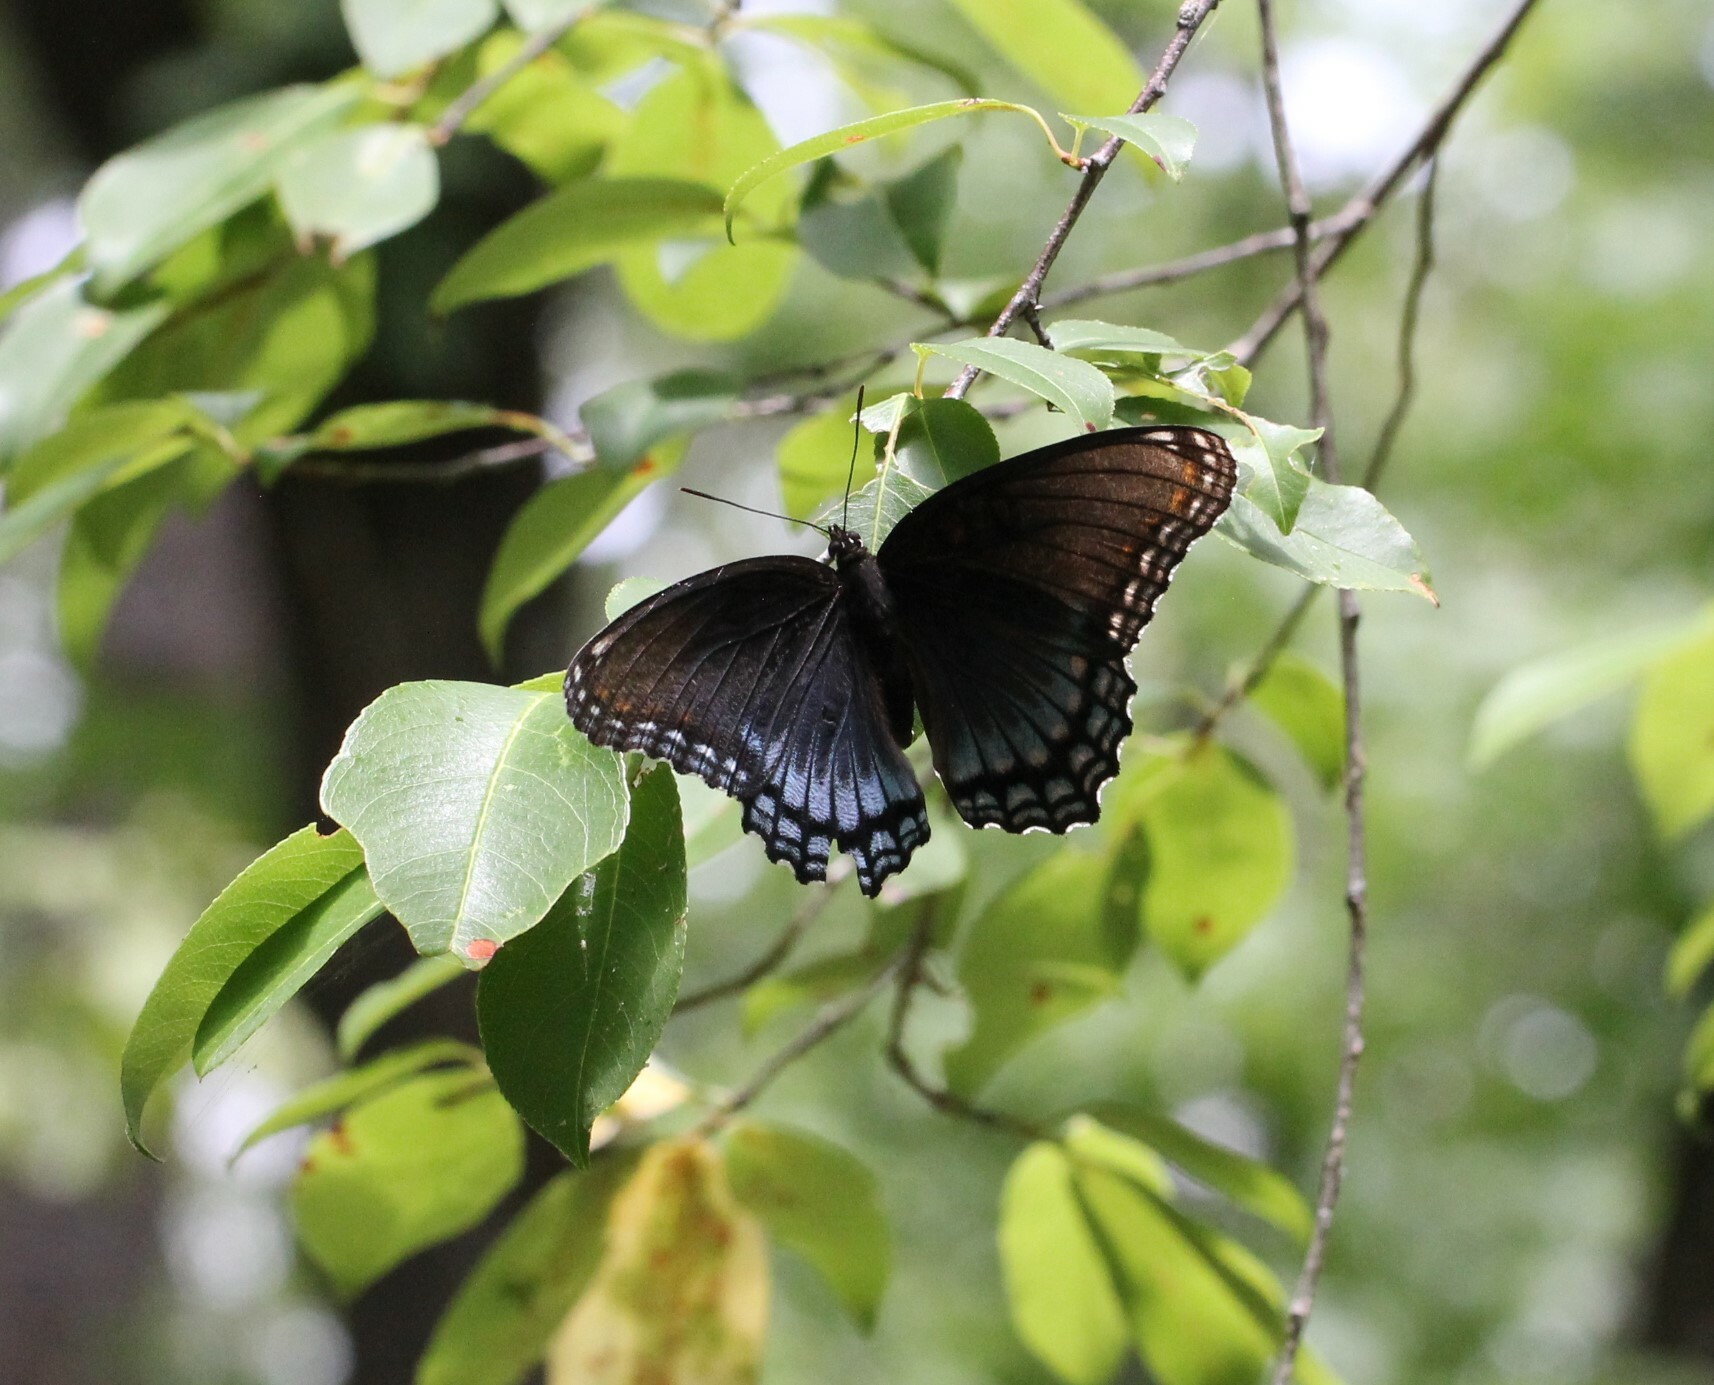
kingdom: Animalia
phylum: Arthropoda
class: Insecta
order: Lepidoptera
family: Nymphalidae
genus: Limenitis
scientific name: Limenitis astyanax
